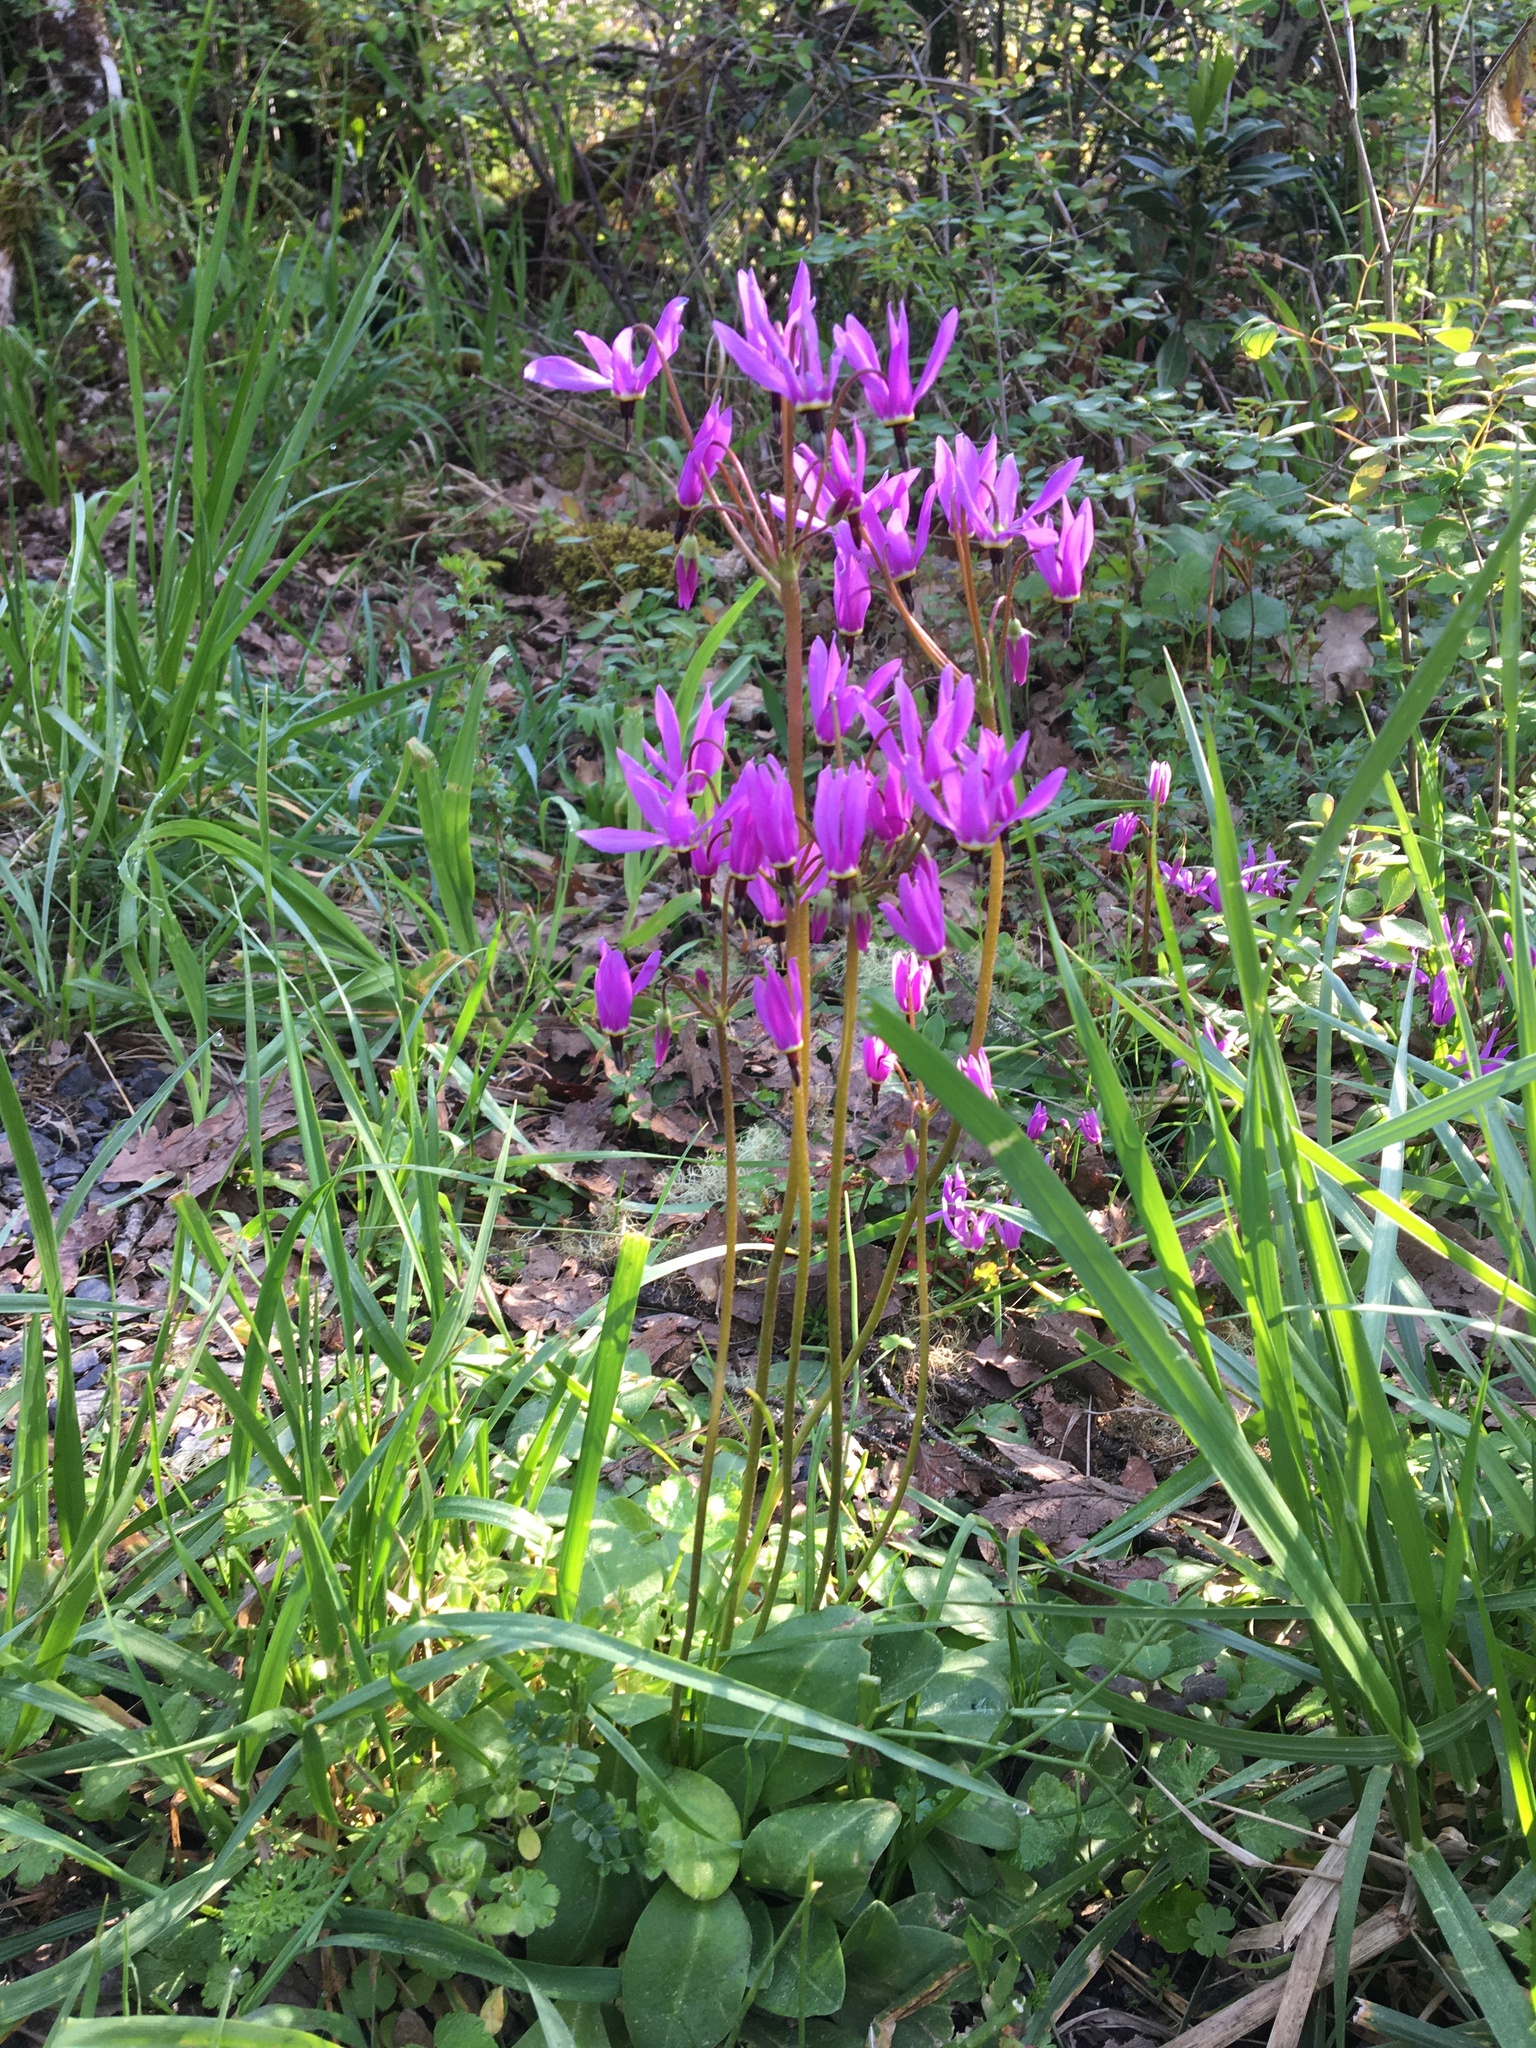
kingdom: Plantae
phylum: Tracheophyta
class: Magnoliopsida
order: Ericales
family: Primulaceae
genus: Dodecatheon
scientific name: Dodecatheon hendersonii
